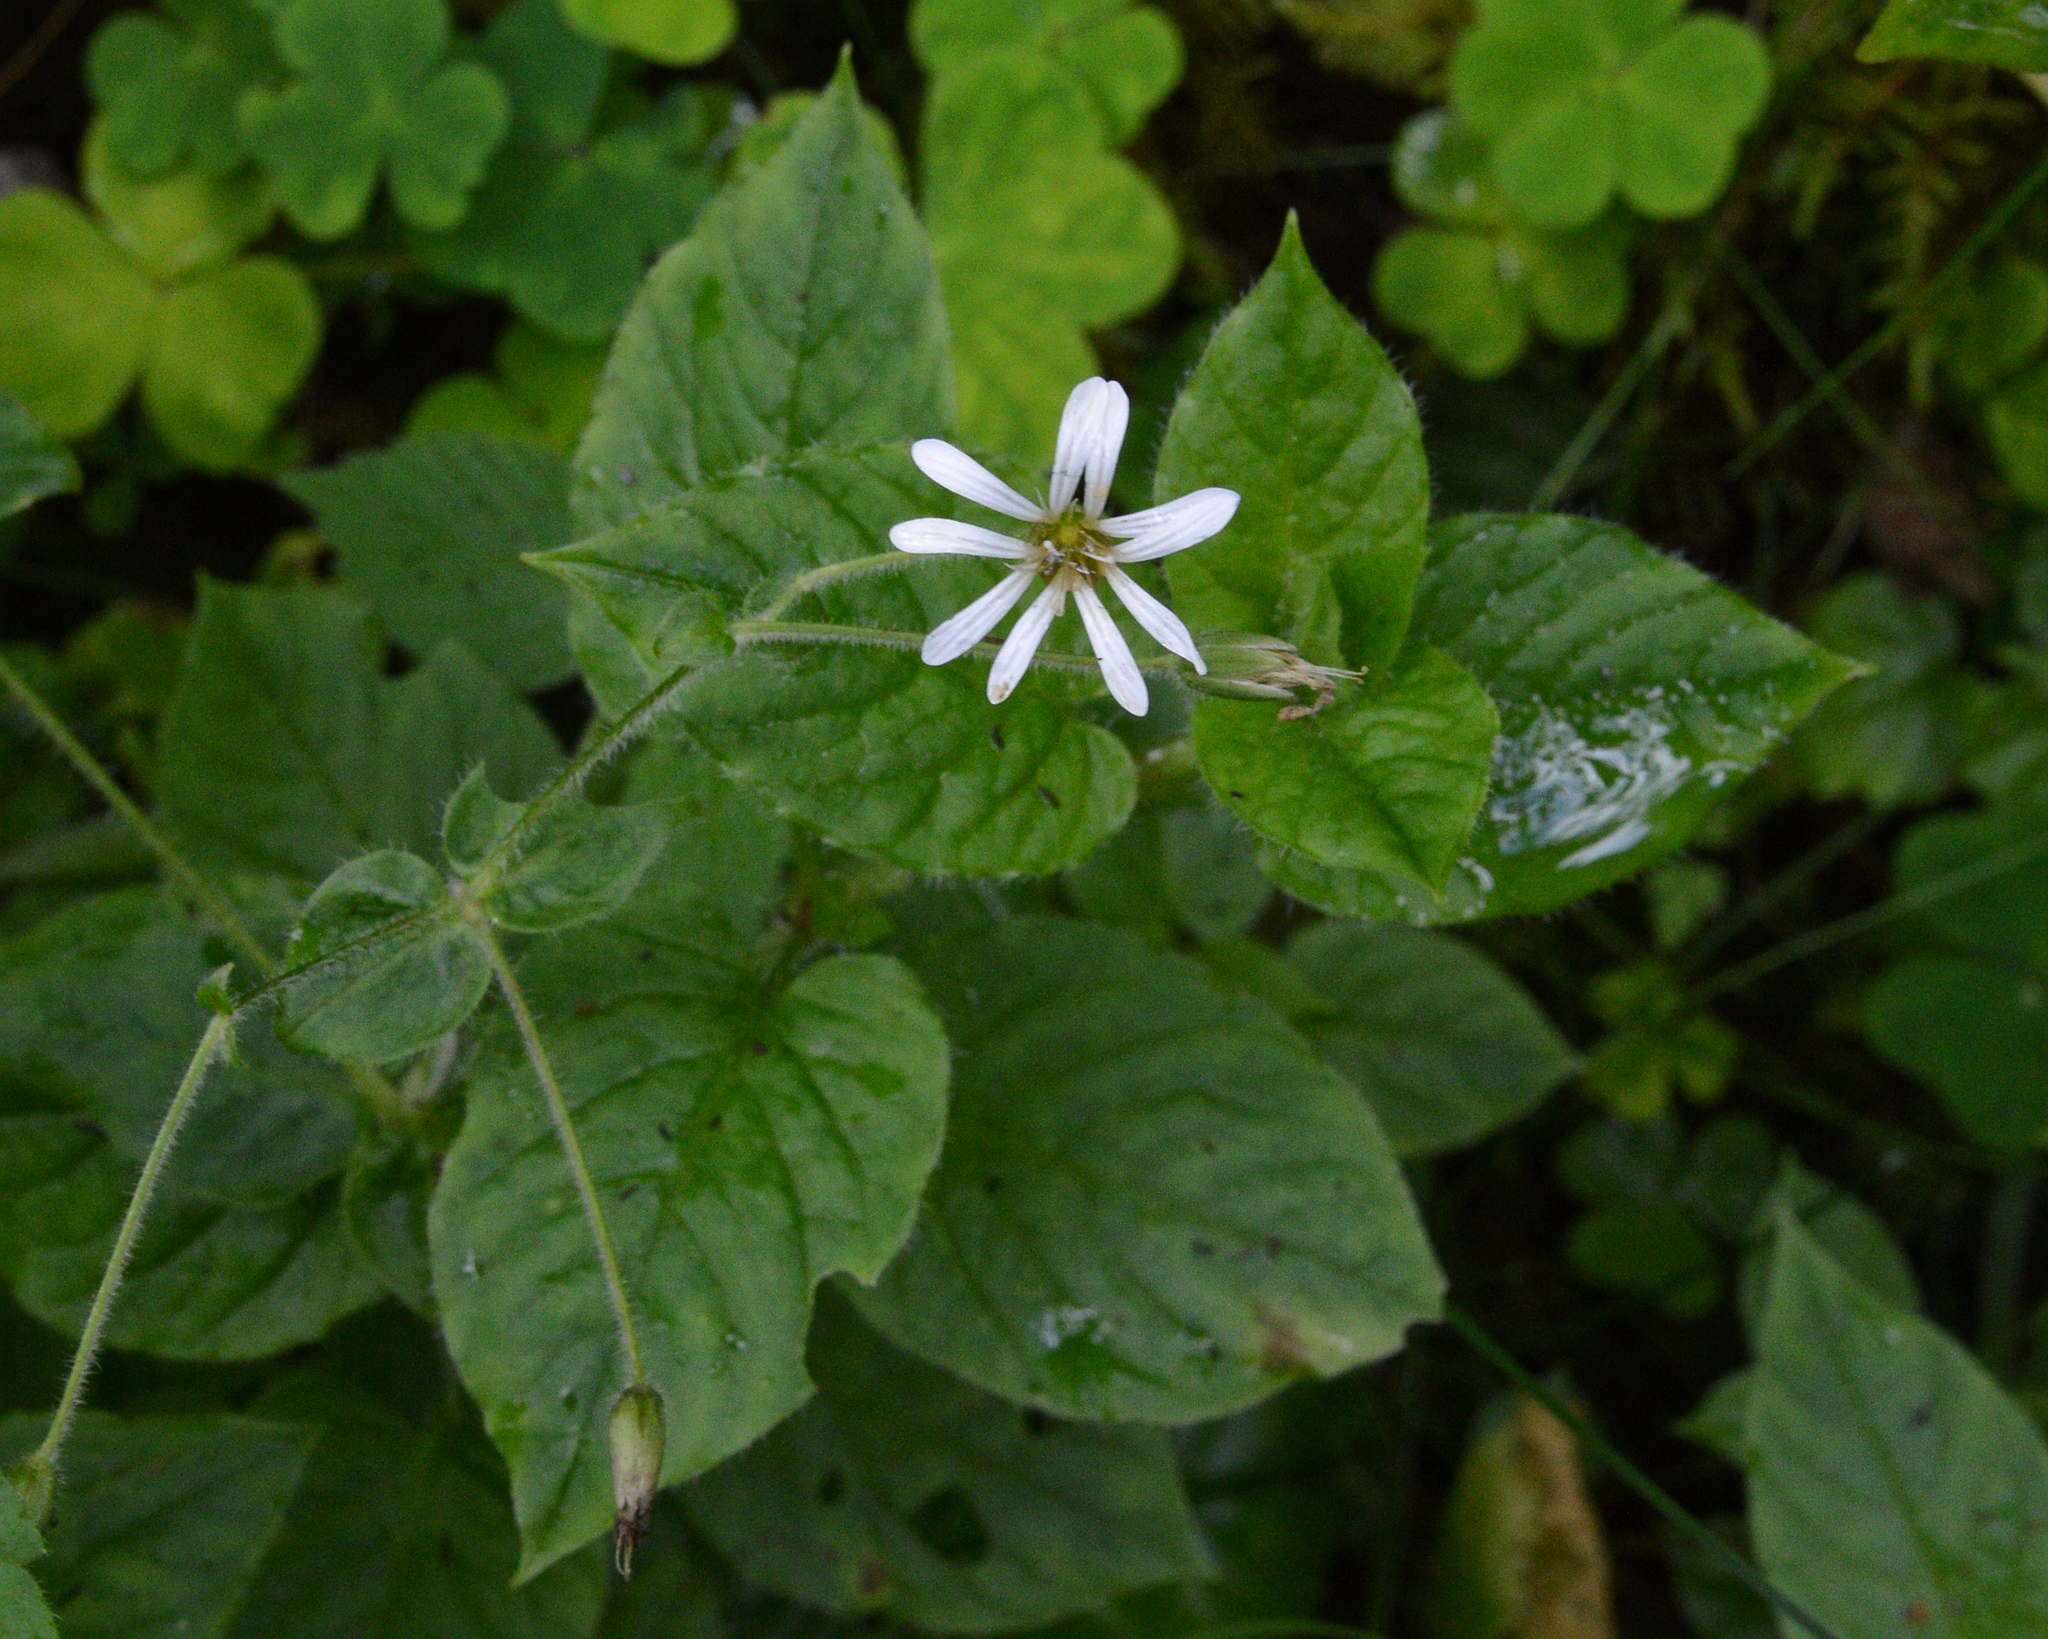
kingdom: Plantae
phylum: Tracheophyta
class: Magnoliopsida
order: Caryophyllales
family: Caryophyllaceae
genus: Stellaria
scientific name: Stellaria nemorum
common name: Wood stitchwort
